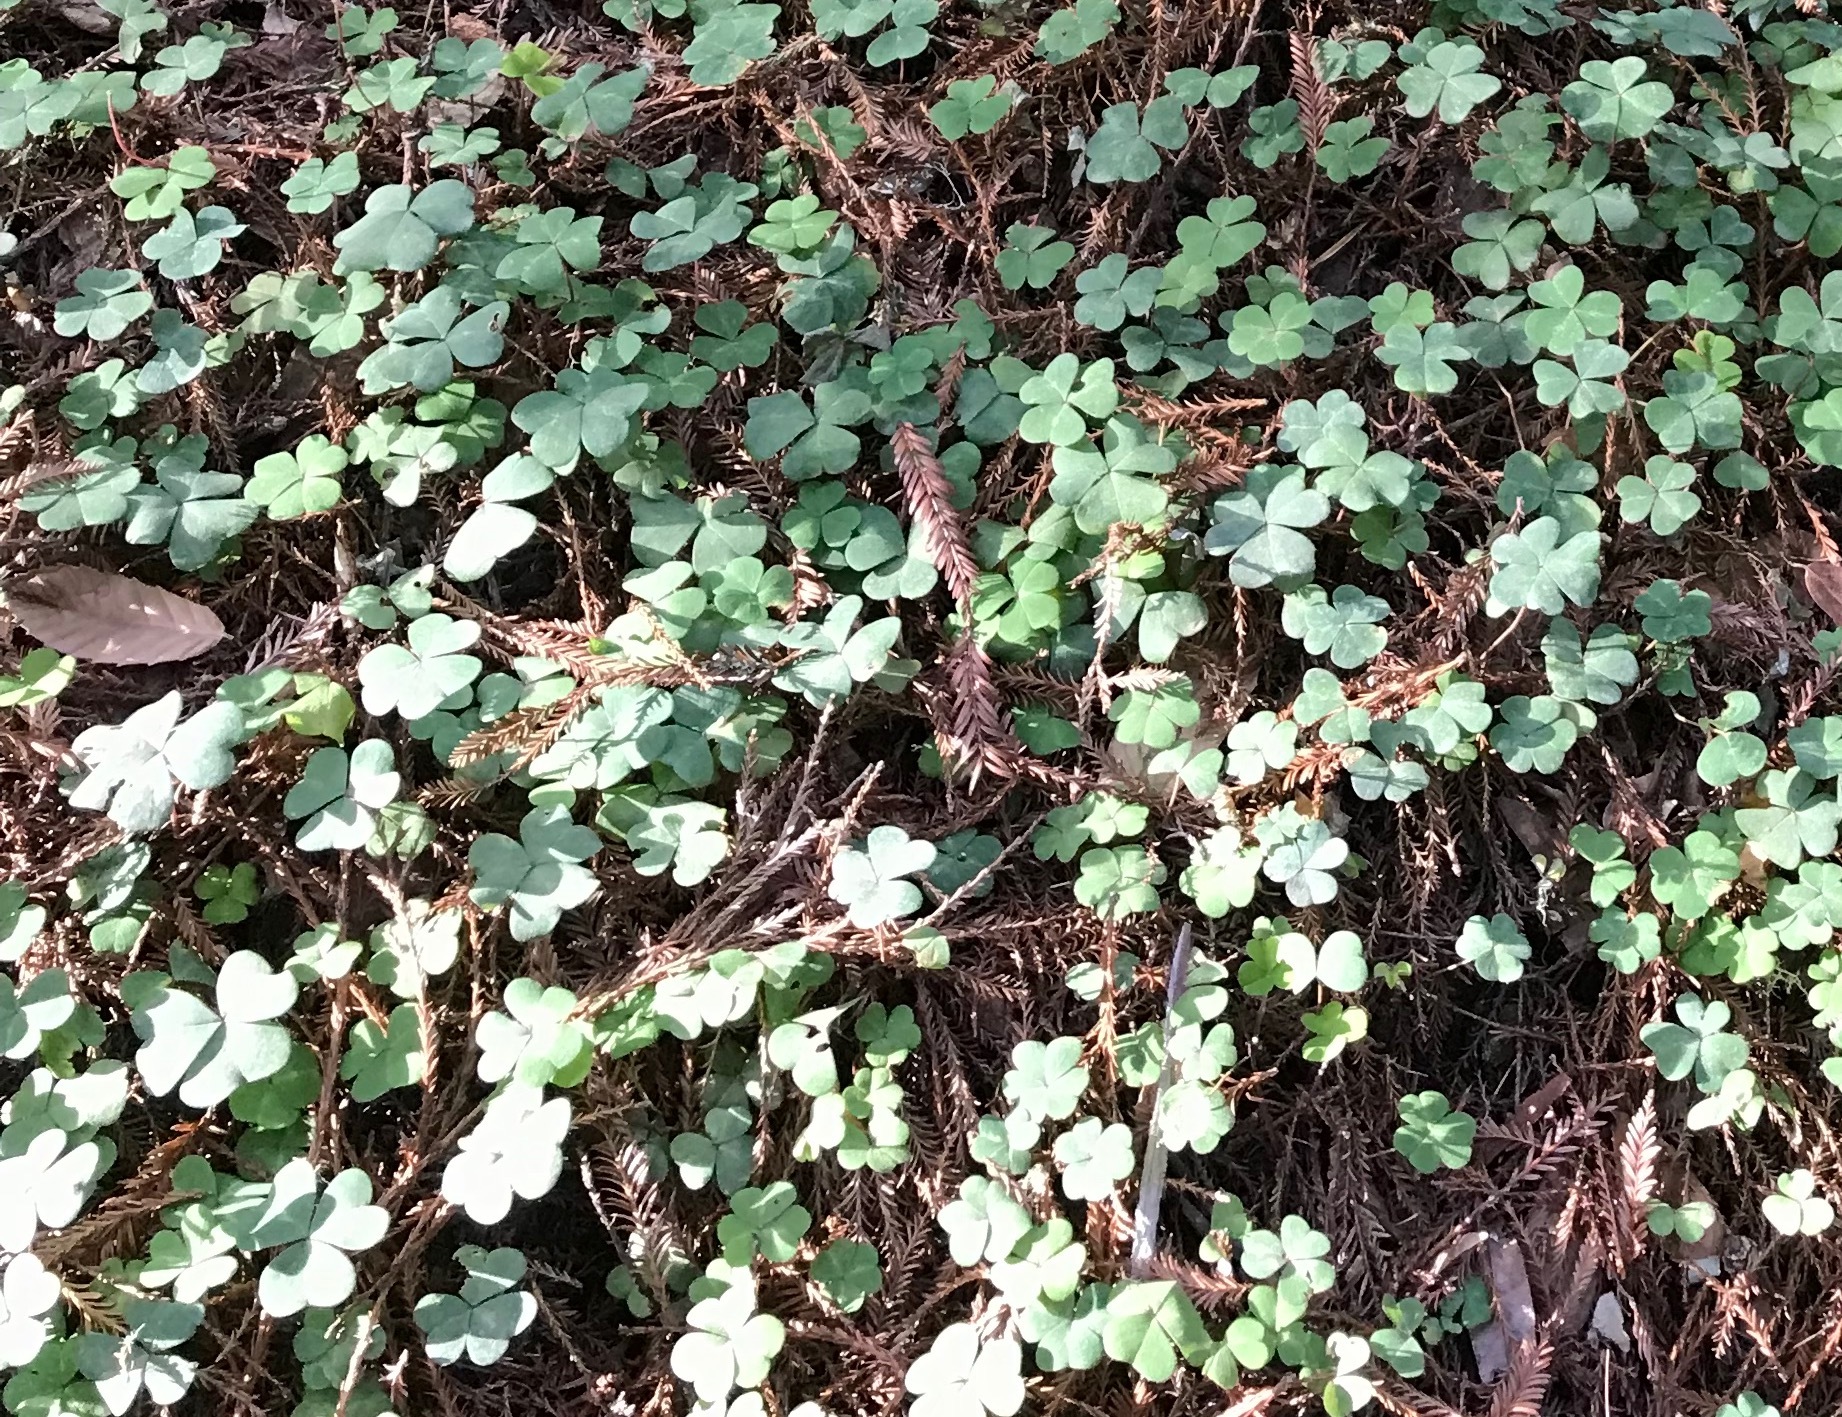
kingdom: Plantae
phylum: Tracheophyta
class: Magnoliopsida
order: Oxalidales
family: Oxalidaceae
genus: Oxalis
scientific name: Oxalis oregana
